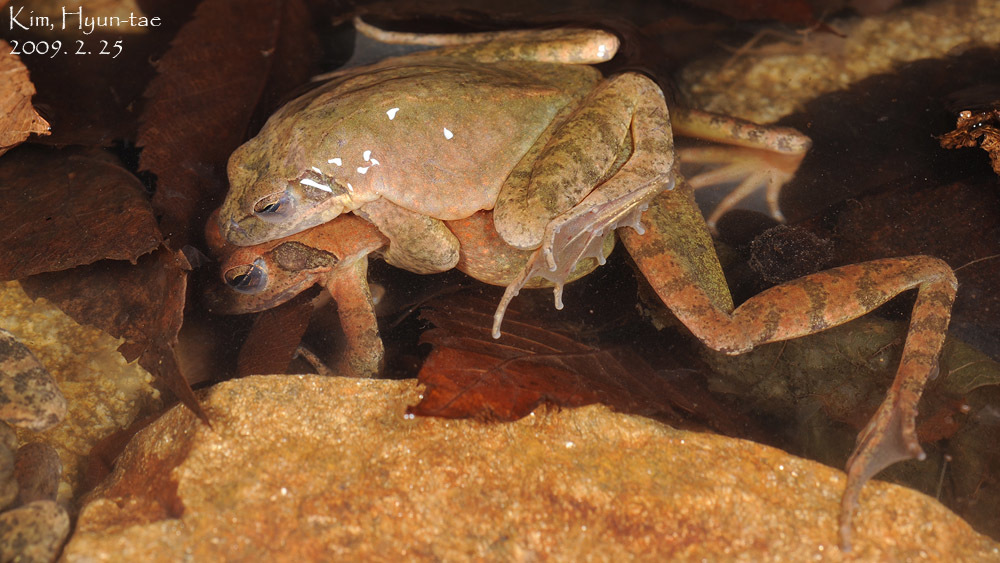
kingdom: Animalia
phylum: Chordata
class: Amphibia
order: Anura
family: Ranidae
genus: Rana
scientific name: Rana huanrenensis
